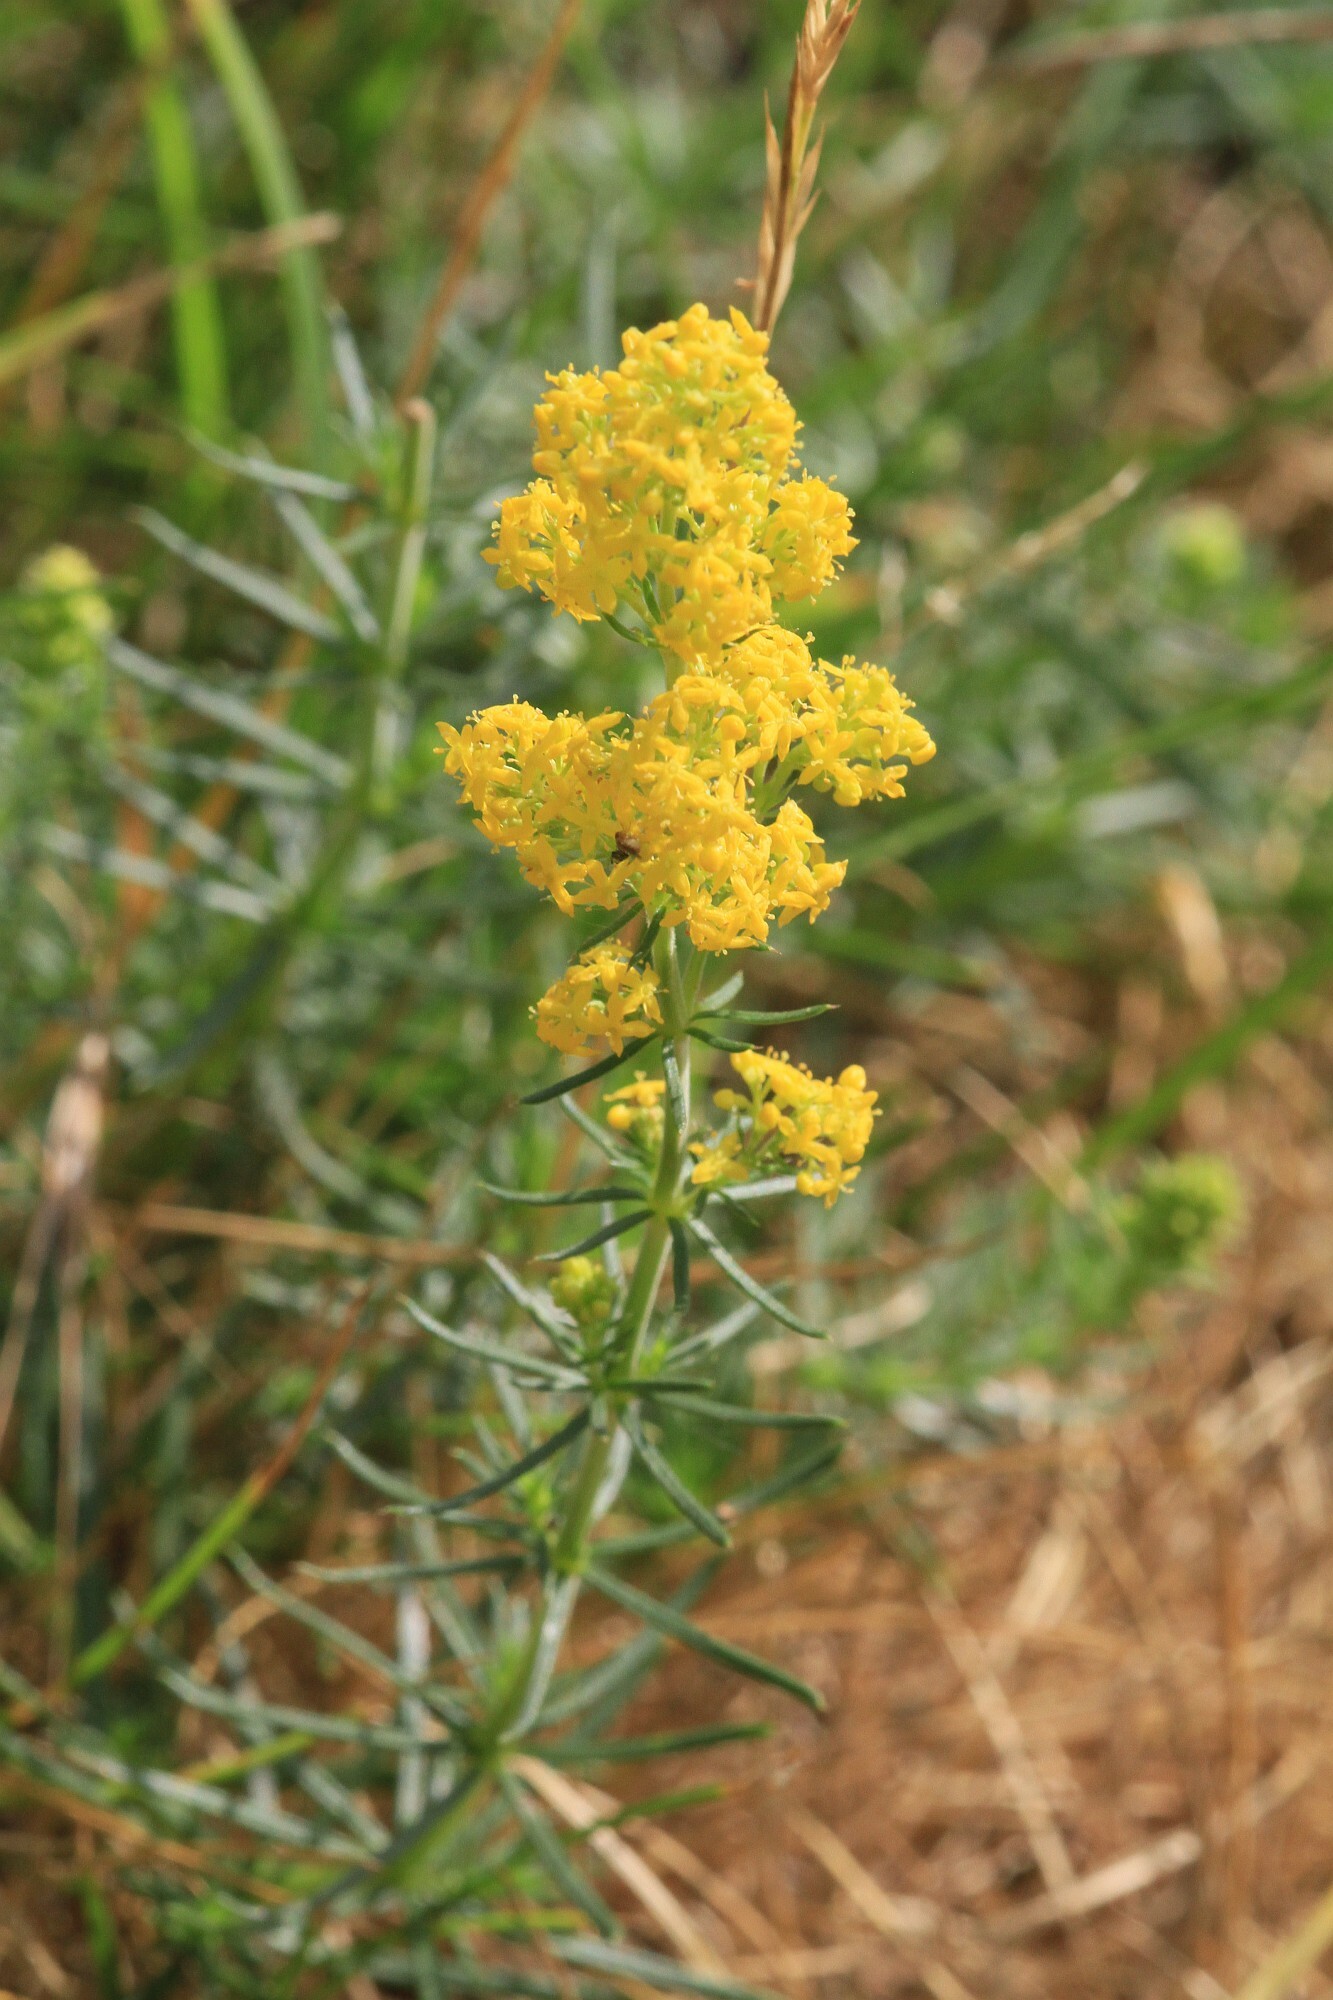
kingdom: Plantae
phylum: Tracheophyta
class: Magnoliopsida
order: Gentianales
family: Rubiaceae
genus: Galium
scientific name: Galium verum
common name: Lady's bedstraw
